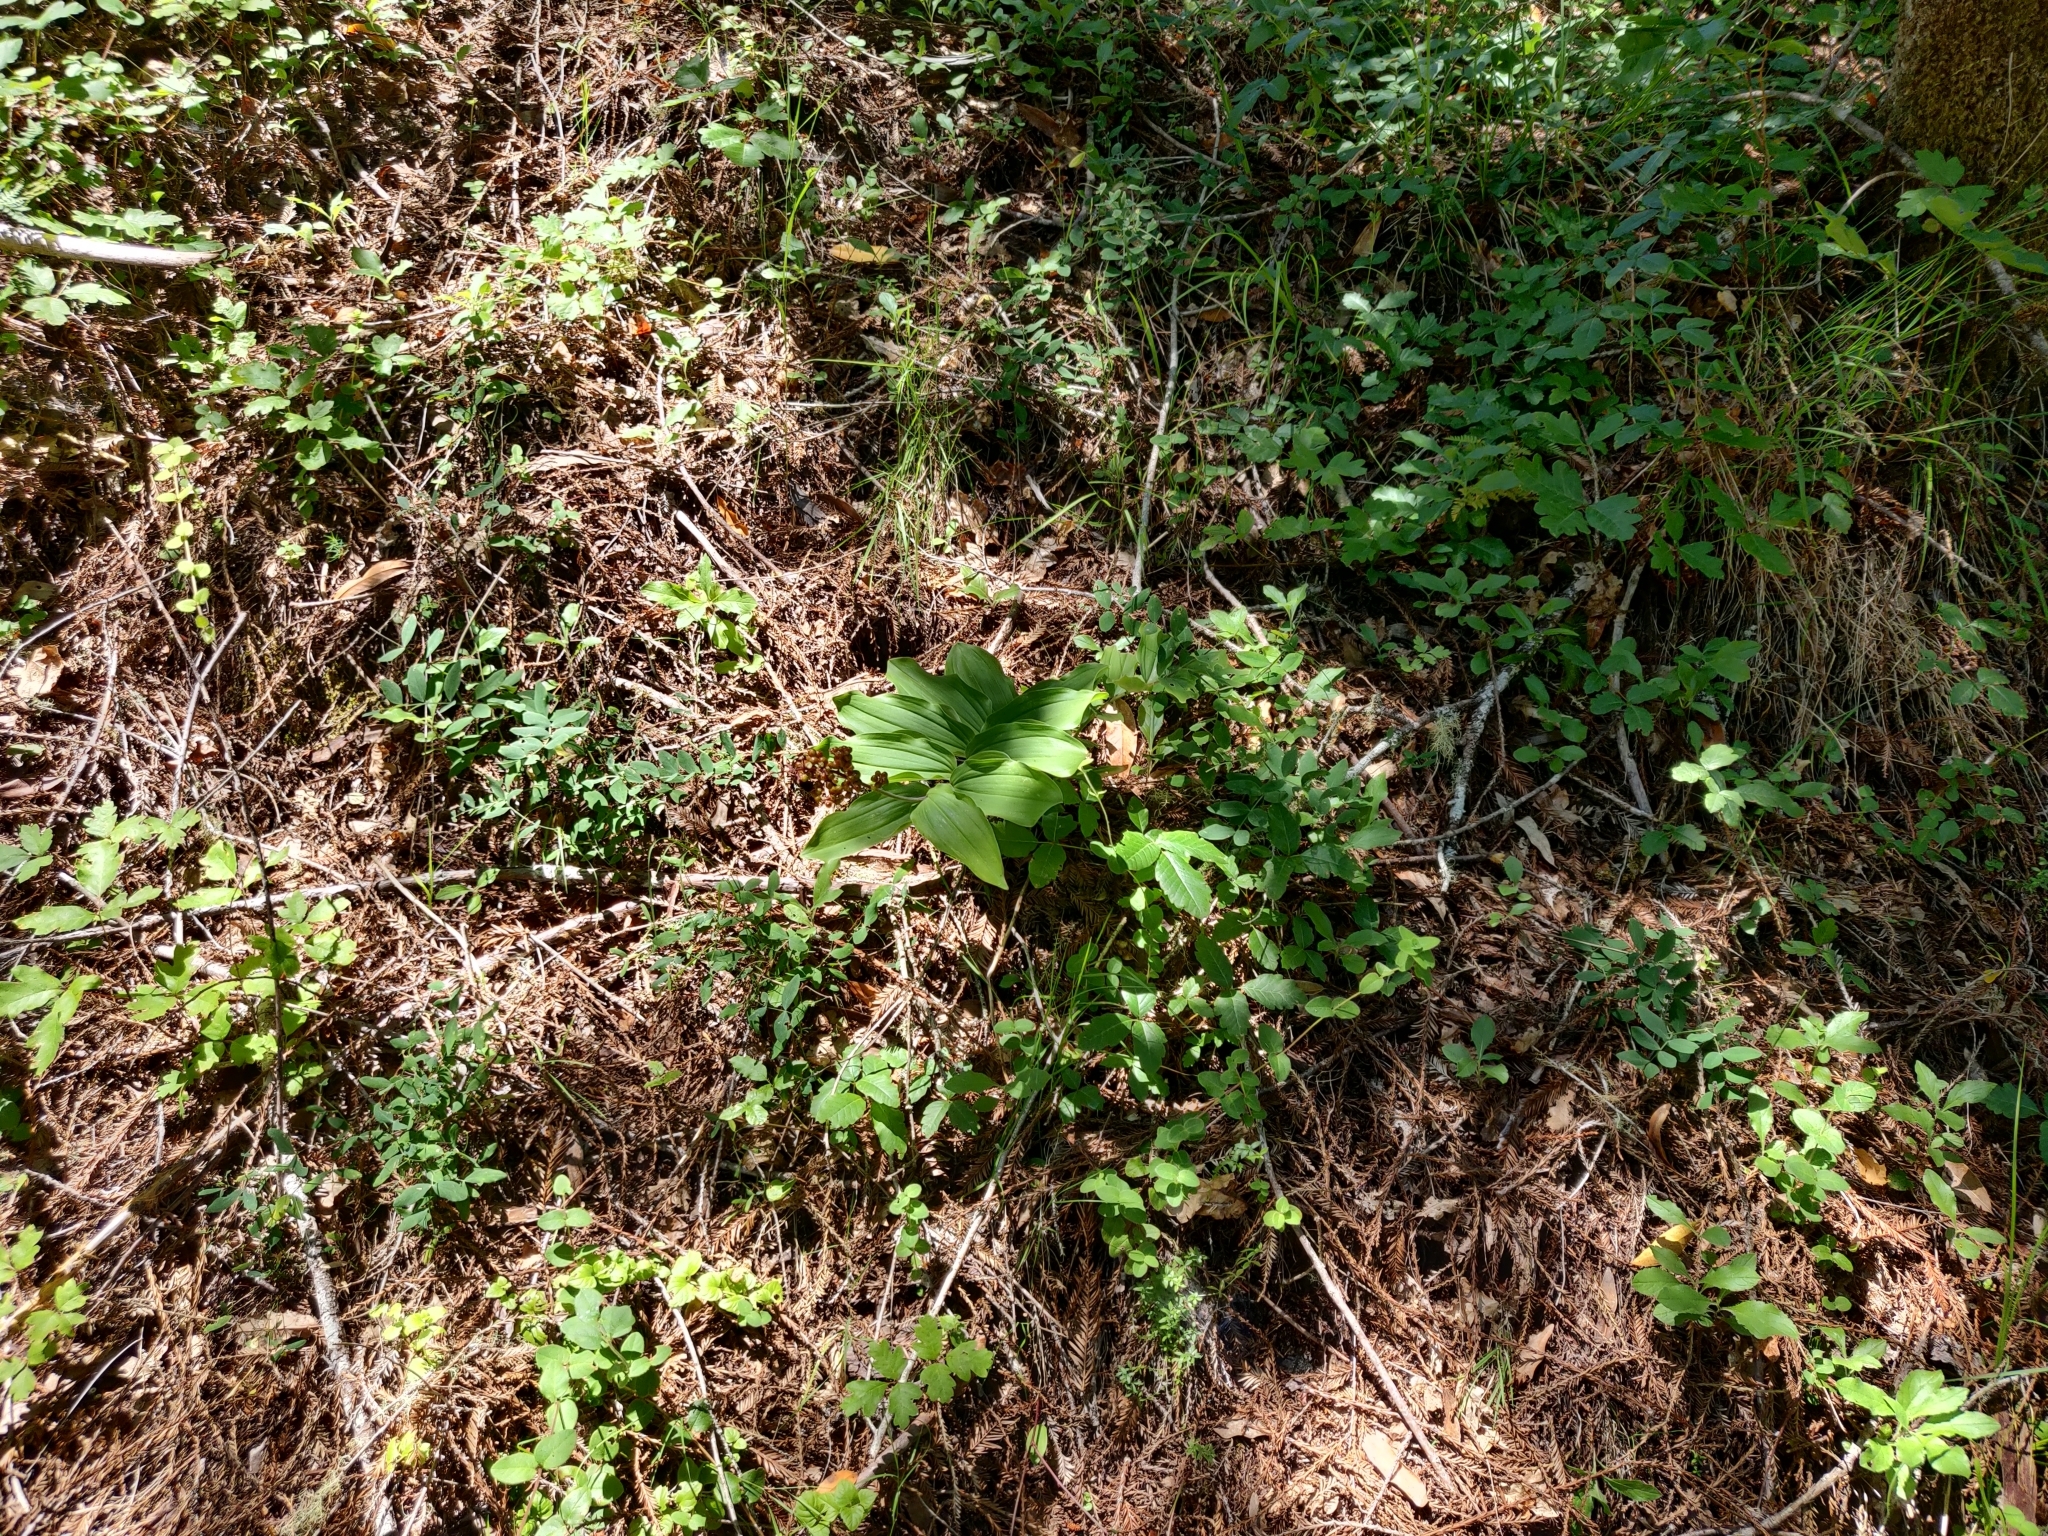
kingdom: Plantae
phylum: Tracheophyta
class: Liliopsida
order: Asparagales
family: Asparagaceae
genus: Maianthemum
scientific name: Maianthemum racemosum
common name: False spikenard
